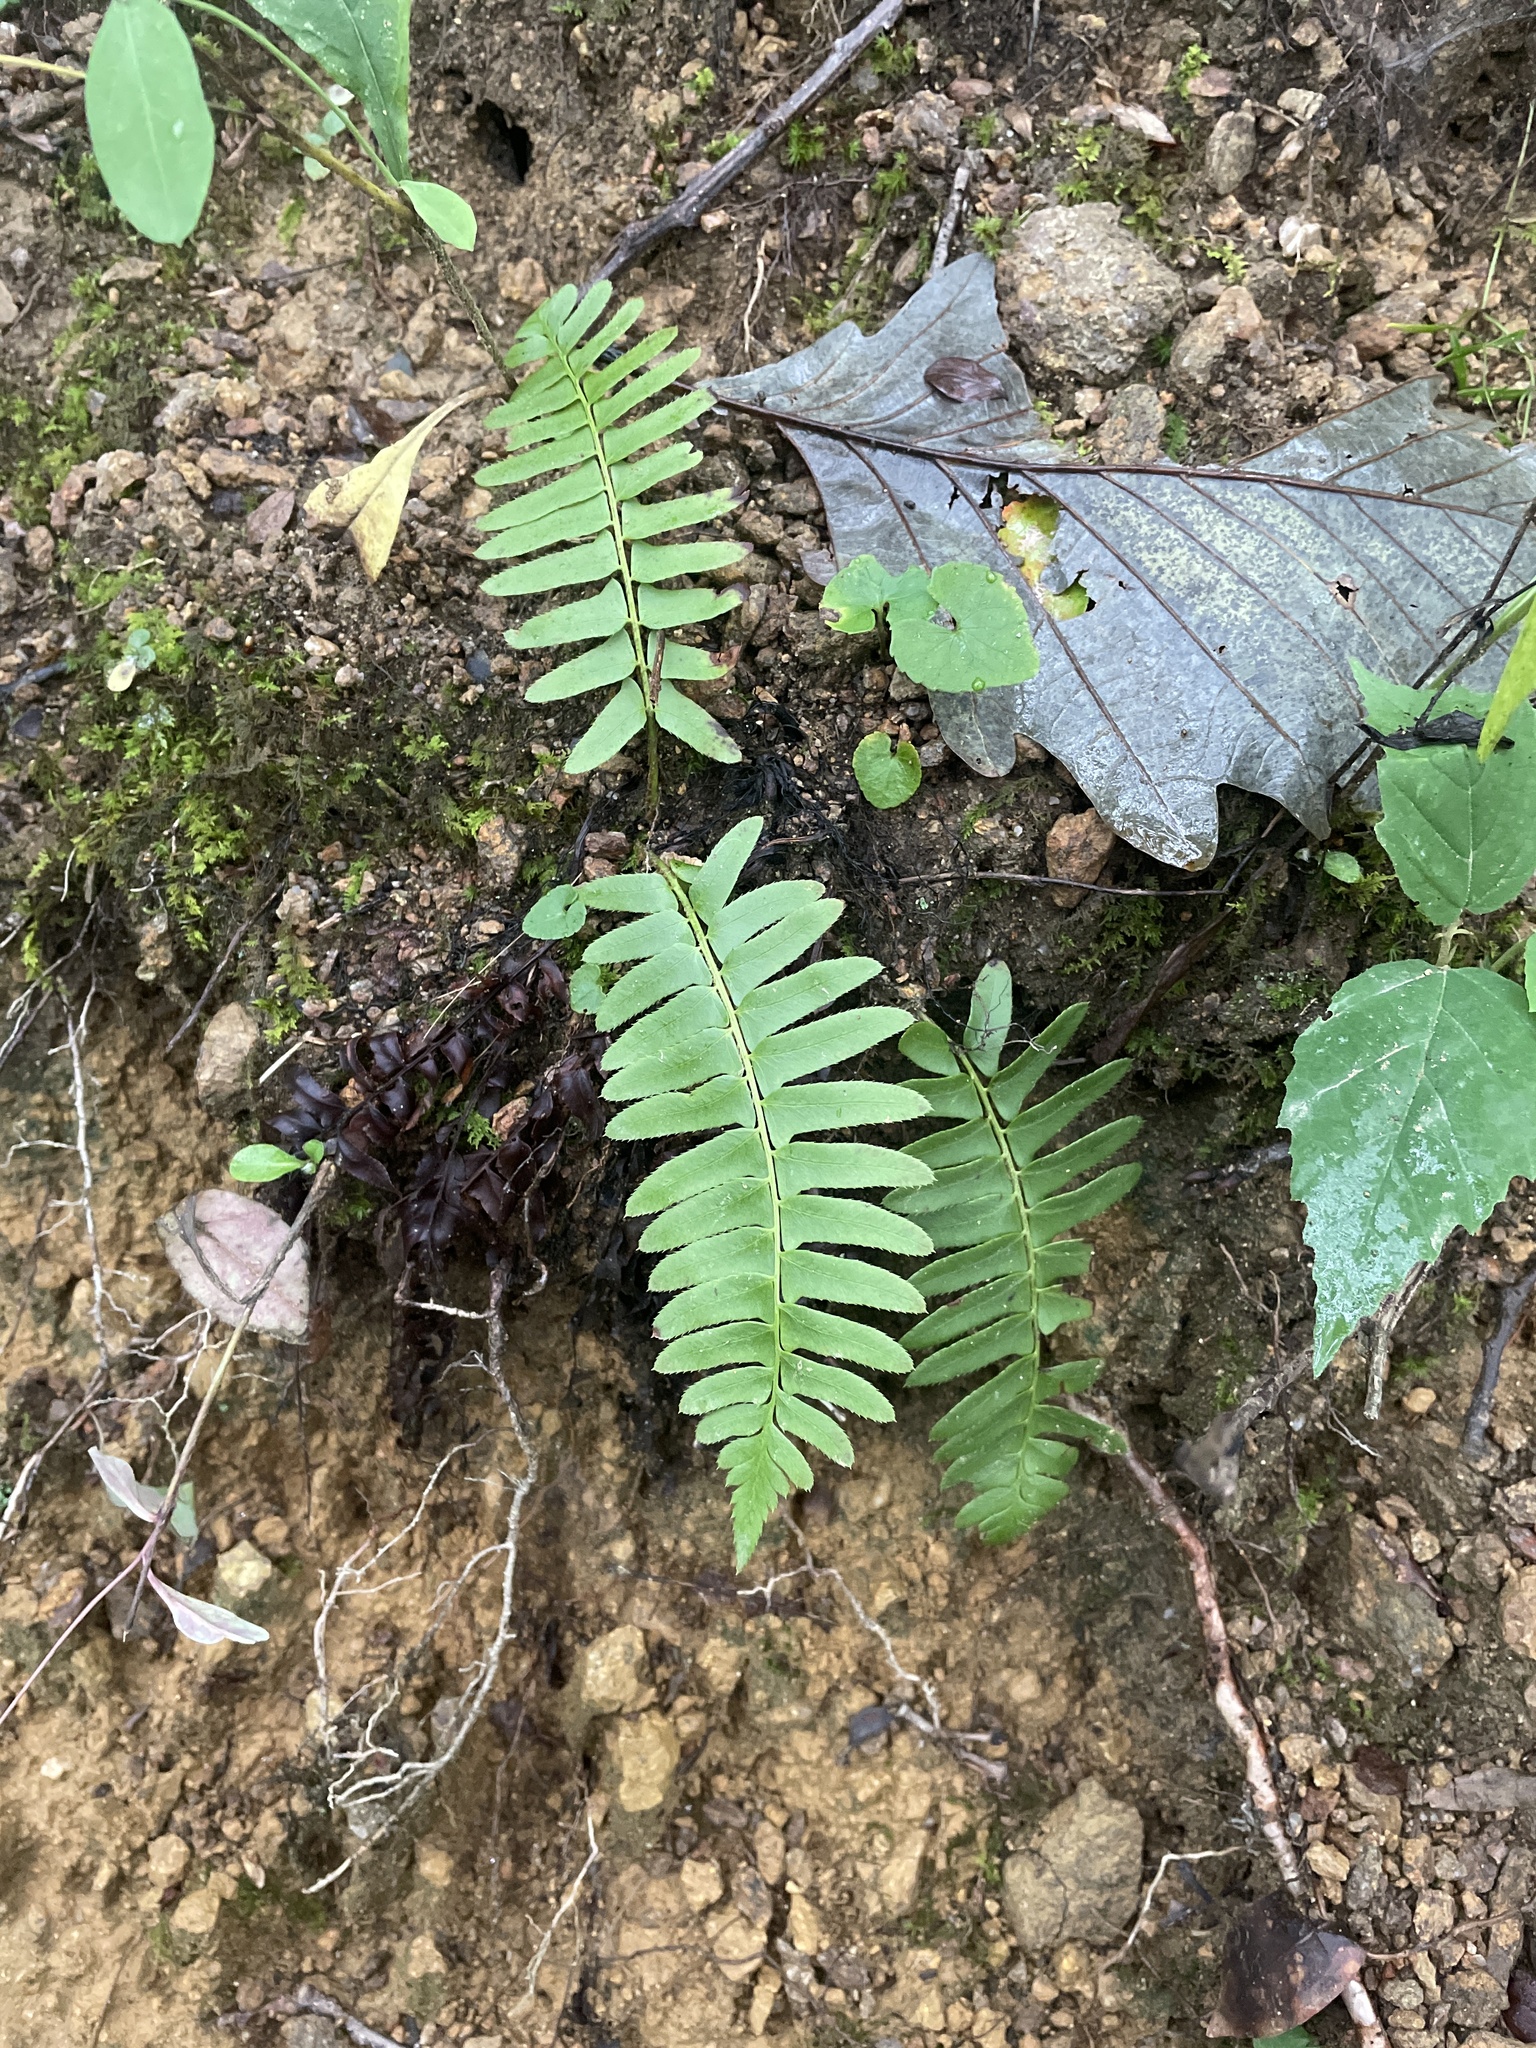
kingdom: Plantae
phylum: Tracheophyta
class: Polypodiopsida
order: Polypodiales
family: Dryopteridaceae
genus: Polystichum
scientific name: Polystichum acrostichoides
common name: Christmas fern
